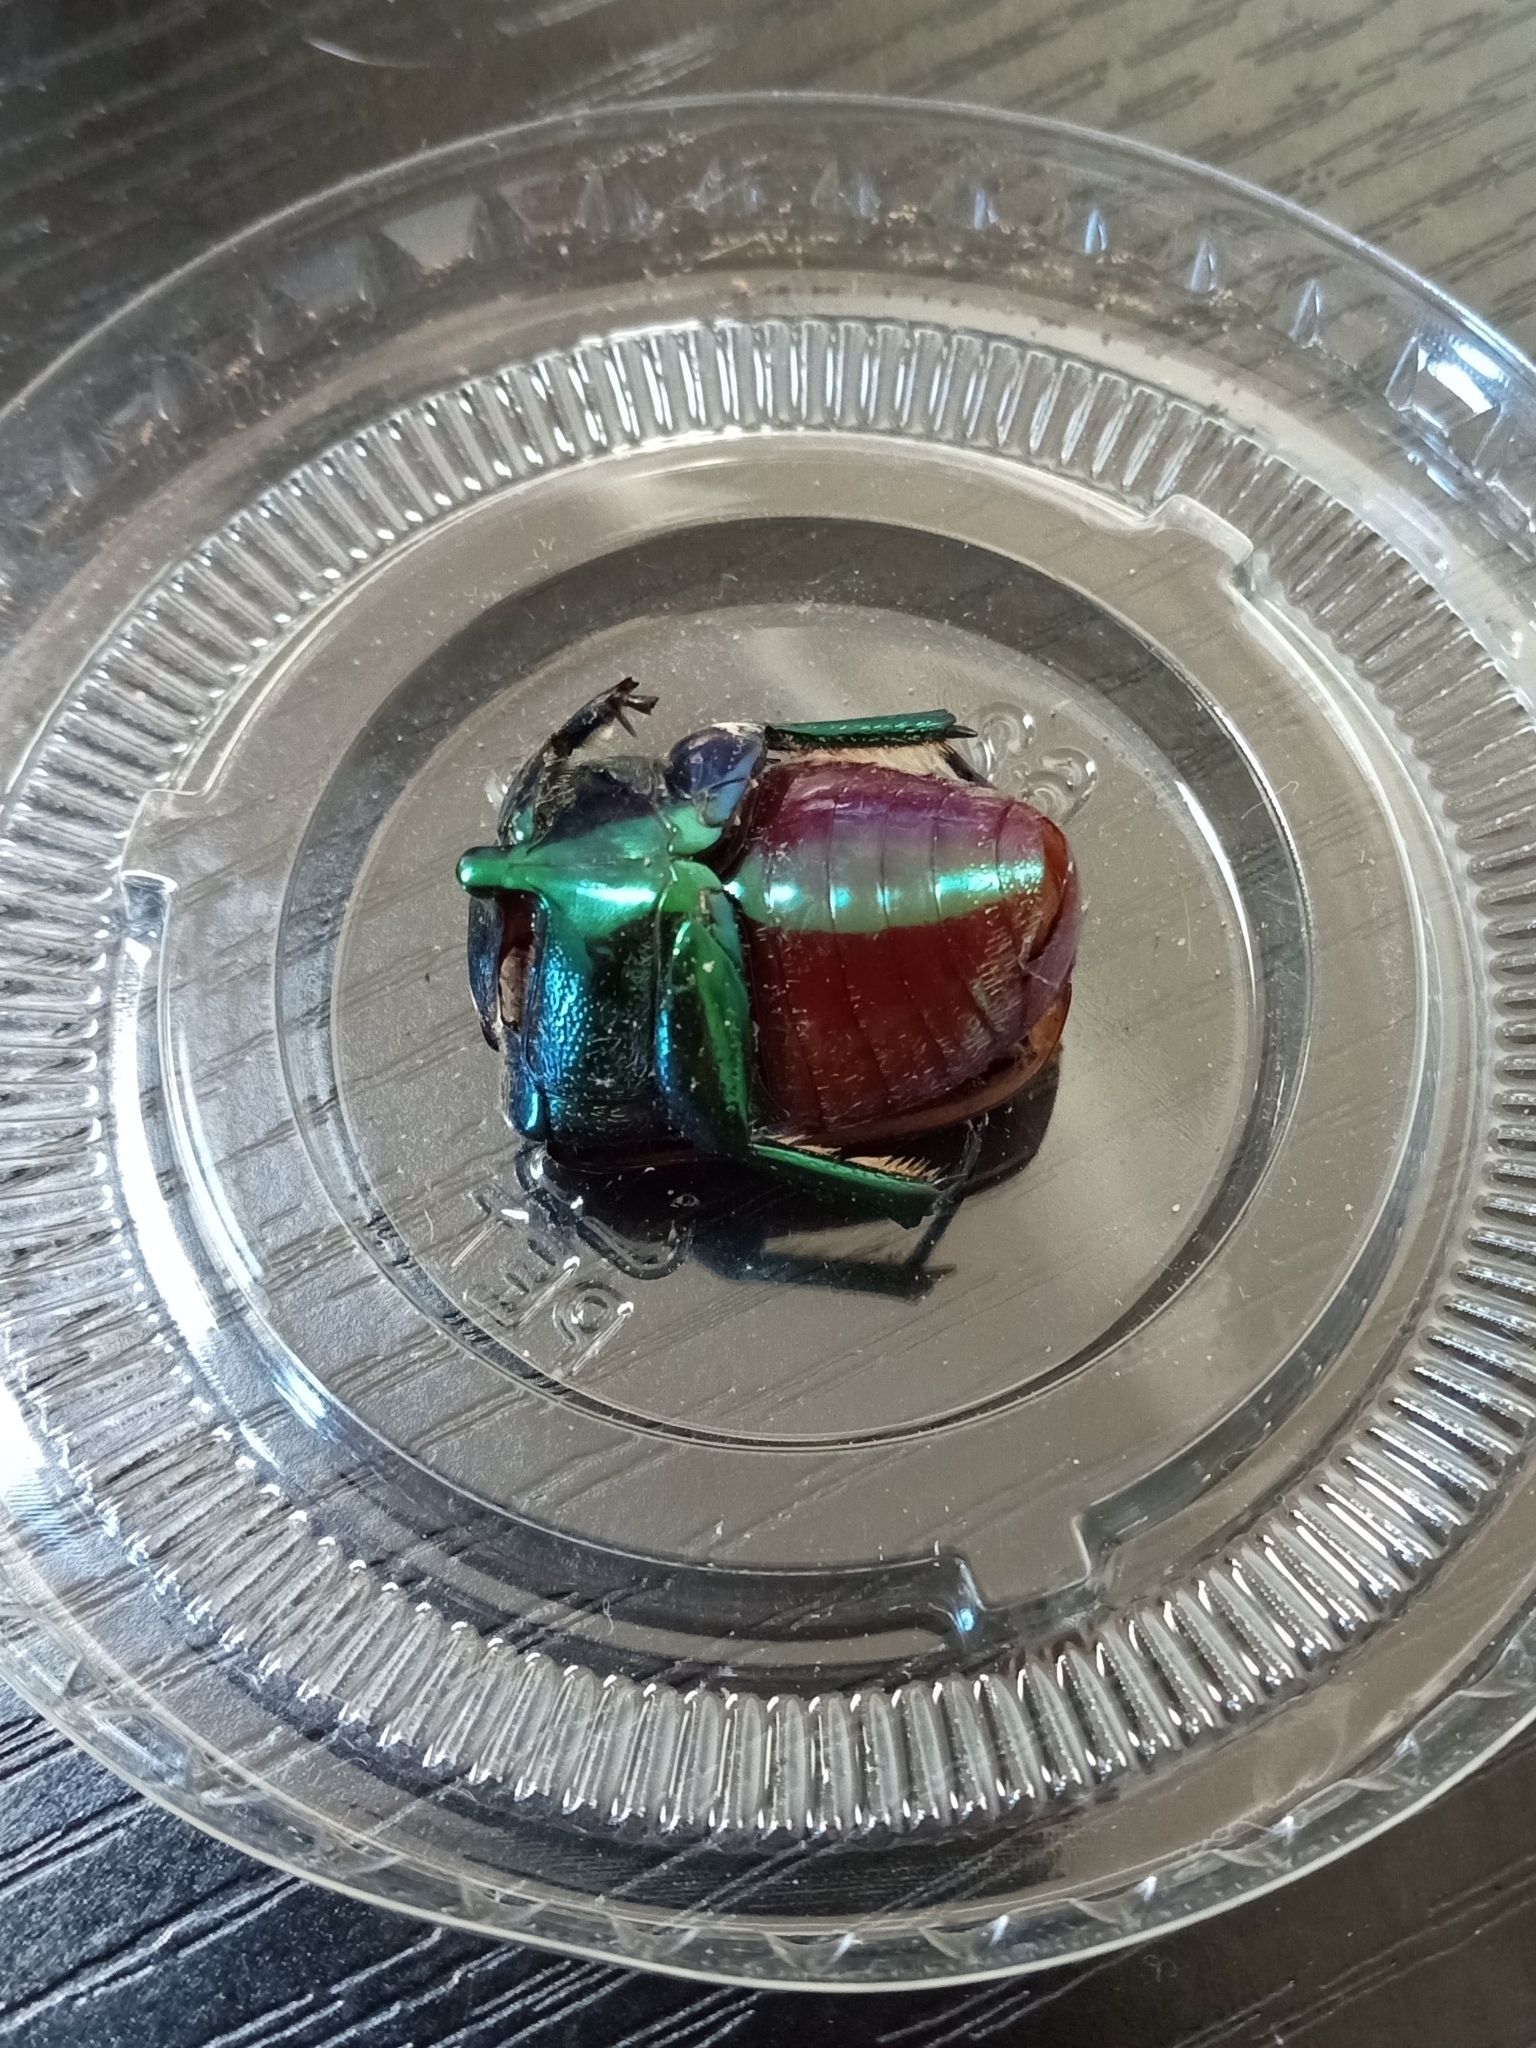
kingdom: Animalia
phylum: Arthropoda
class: Insecta
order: Coleoptera
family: Scarabaeidae
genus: Cotinis
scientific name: Cotinis mutabilis
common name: Figeater beetle
